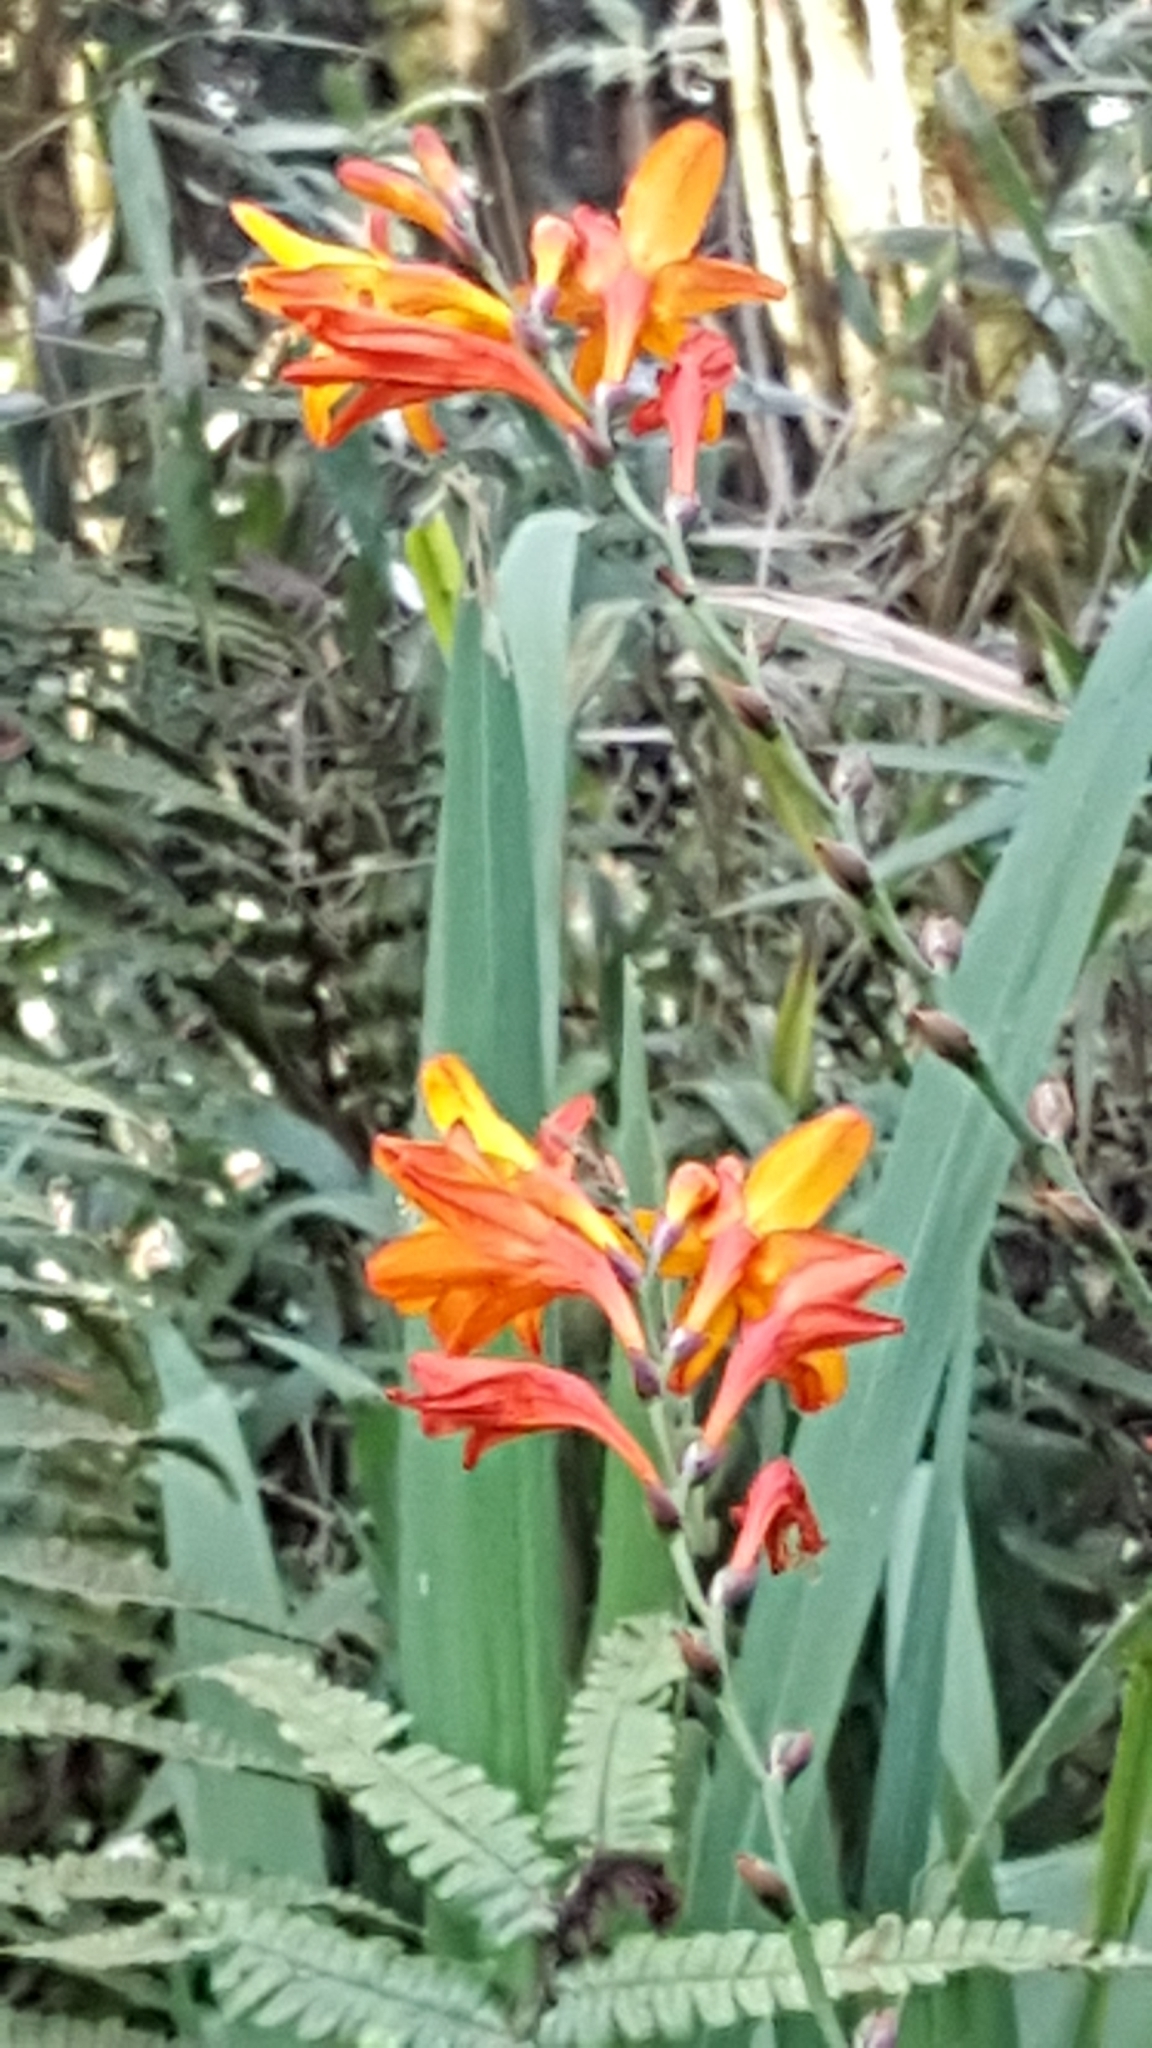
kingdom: Plantae
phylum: Tracheophyta
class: Liliopsida
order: Asparagales
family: Iridaceae
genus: Crocosmia
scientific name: Crocosmia crocosmiiflora
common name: Montbretia
